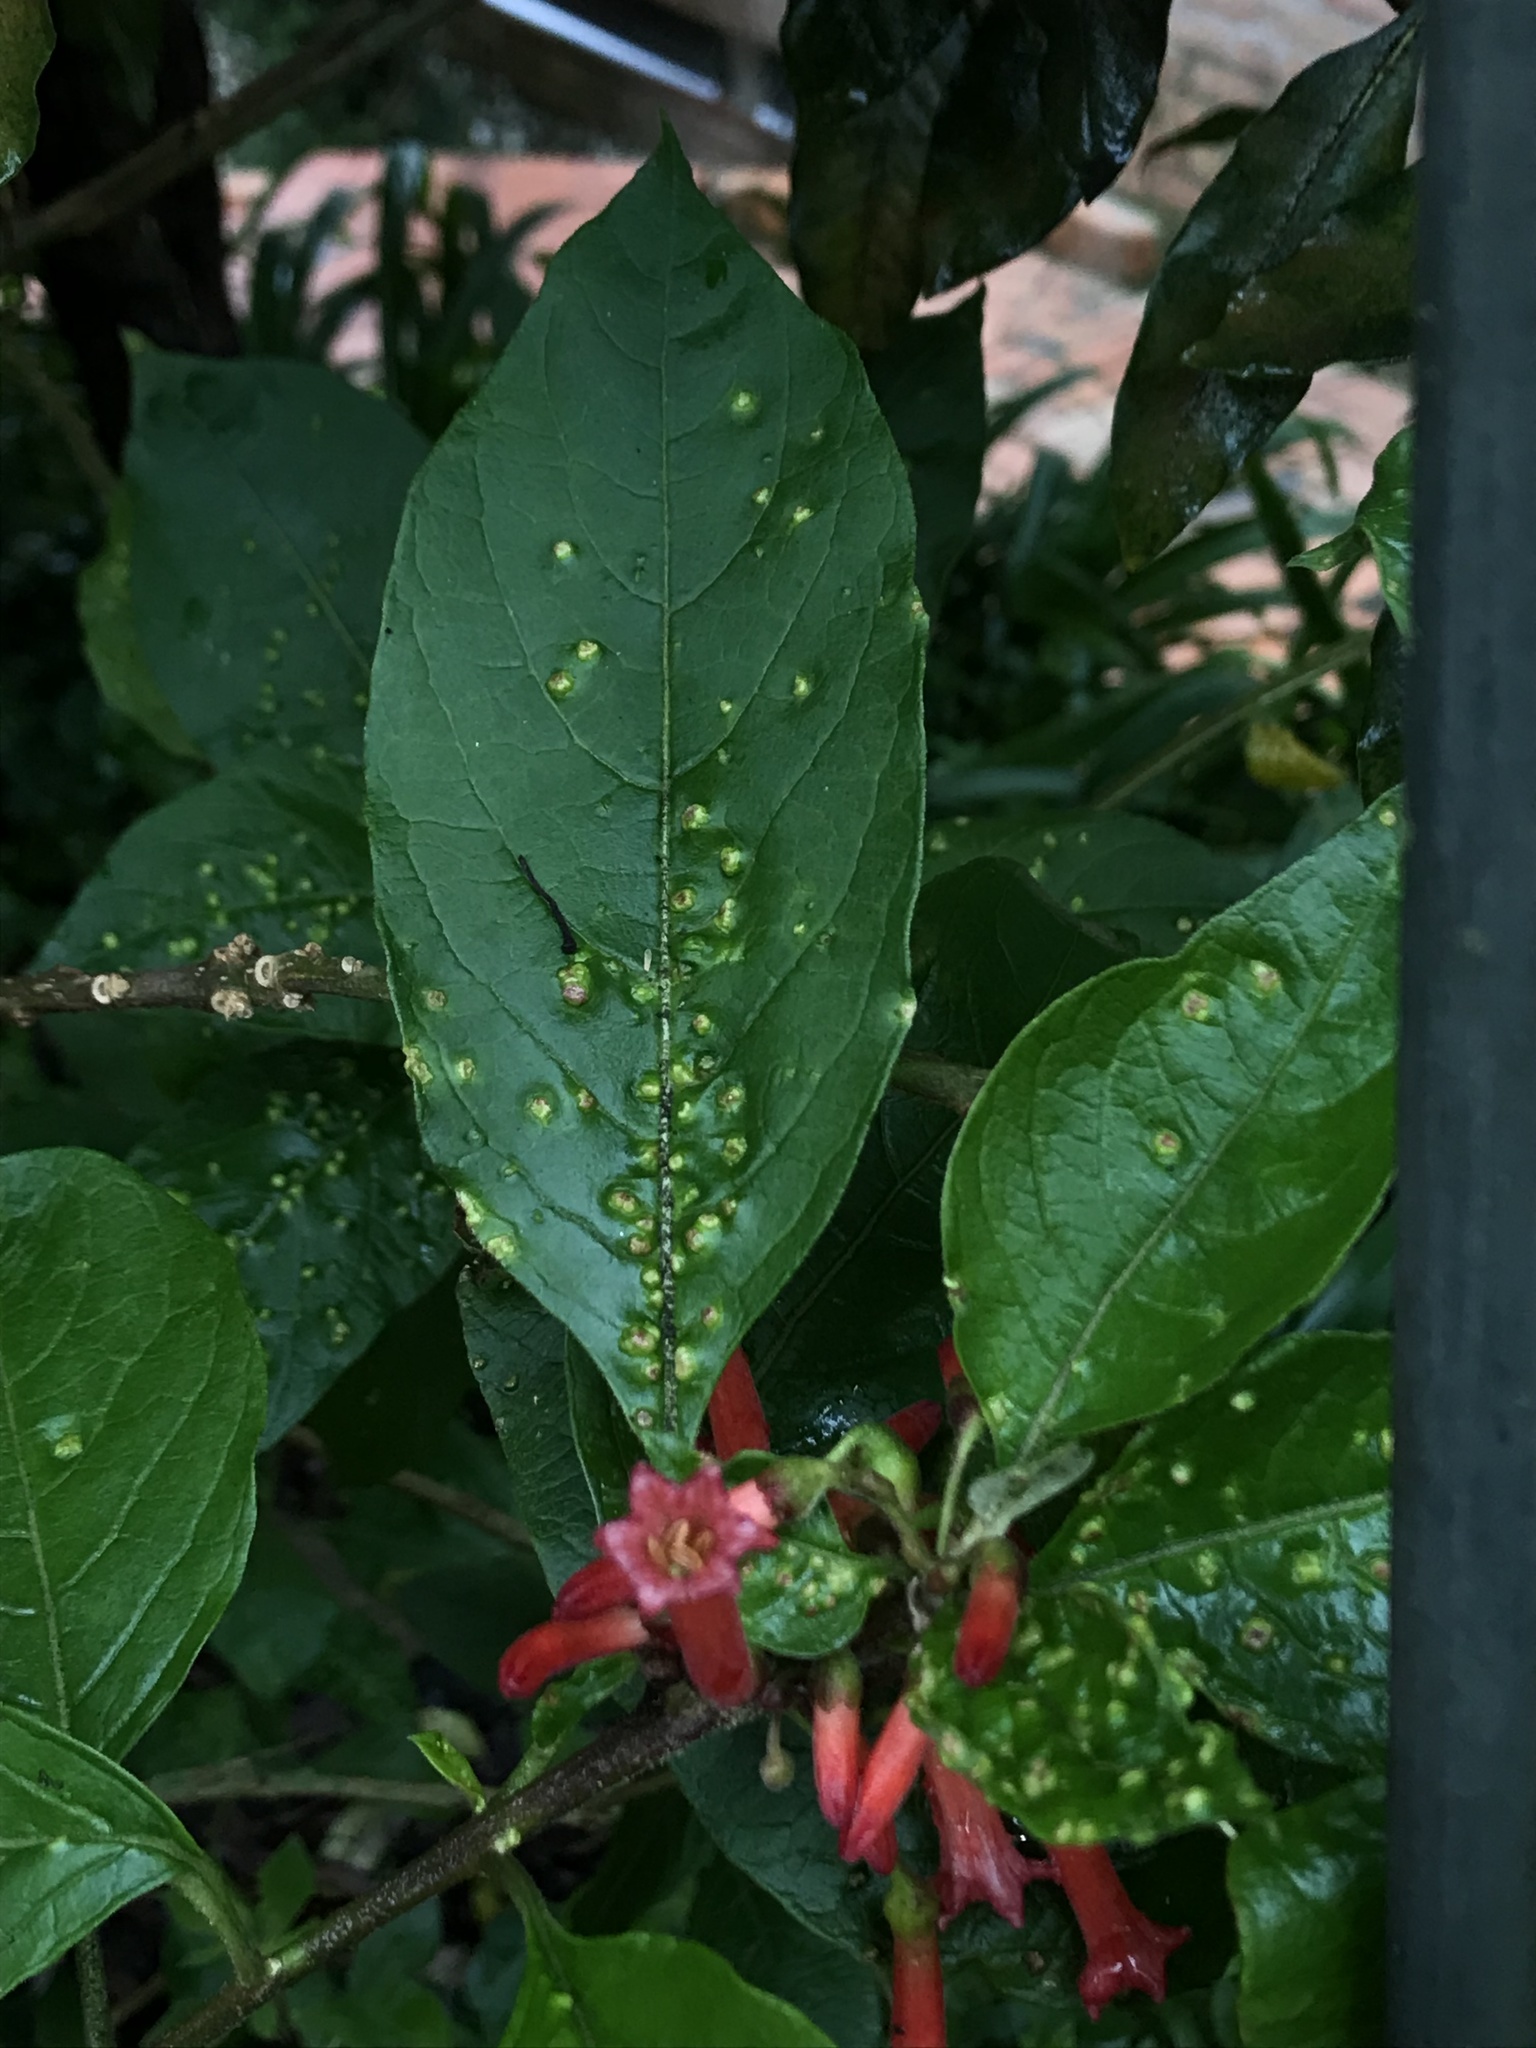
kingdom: Plantae
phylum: Tracheophyta
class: Magnoliopsida
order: Solanales
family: Solanaceae
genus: Iochroma
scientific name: Iochroma fuchsioides
